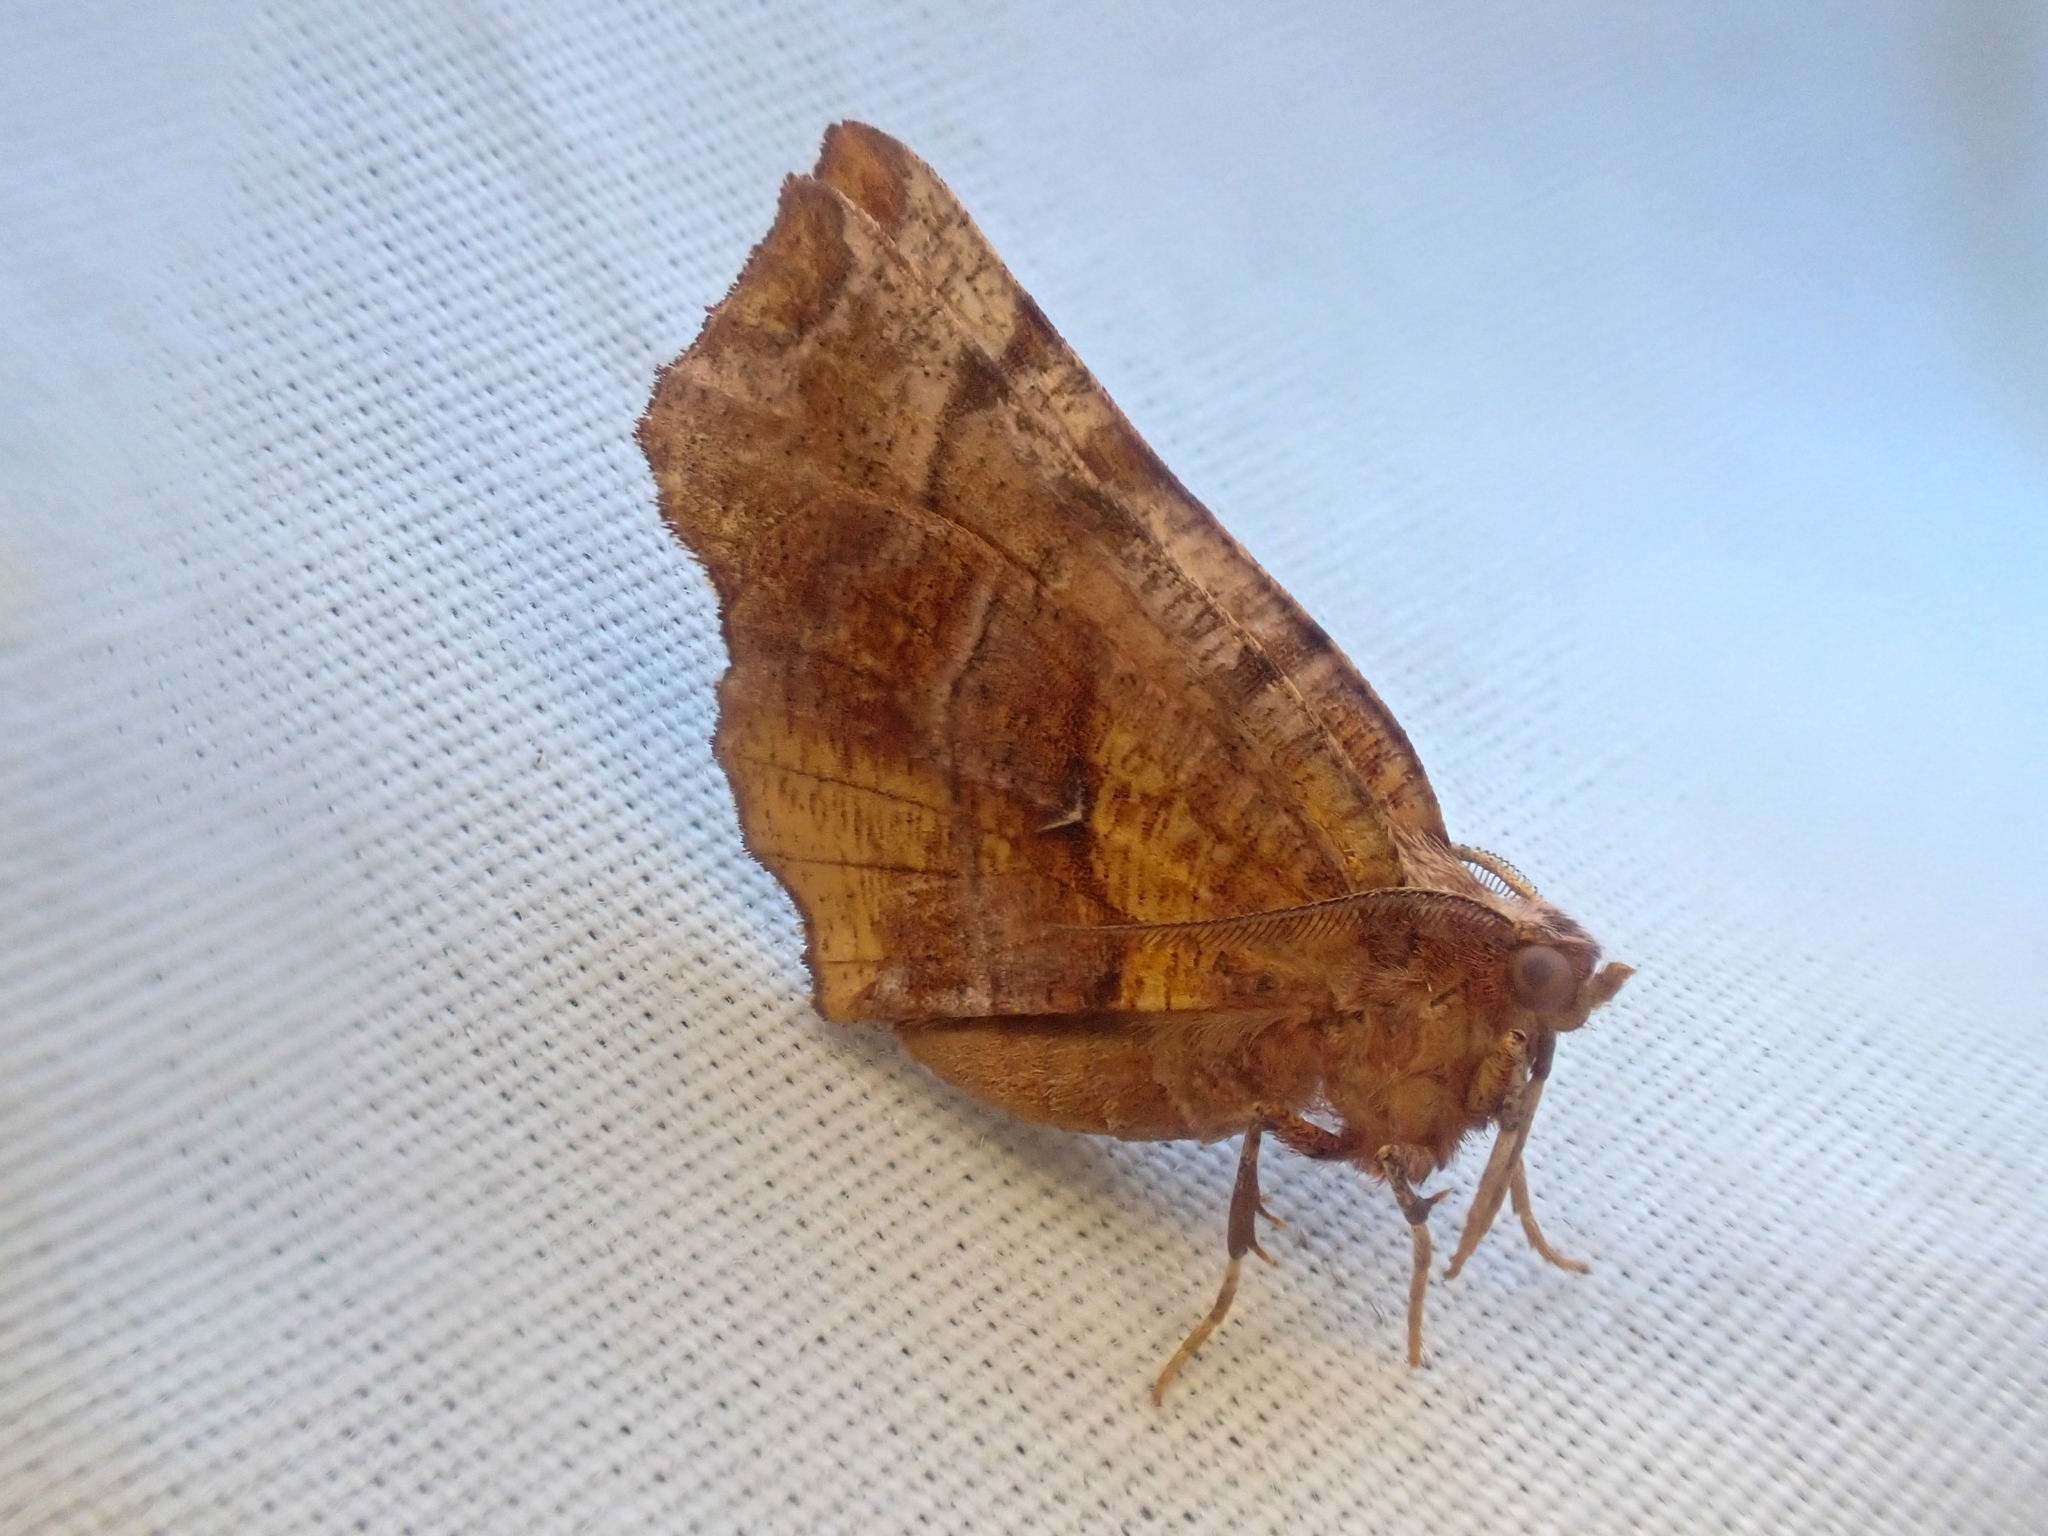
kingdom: Animalia
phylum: Arthropoda
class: Insecta
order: Lepidoptera
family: Geometridae
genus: Selenia
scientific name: Selenia alciphearia
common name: Brown-tipped thorn
